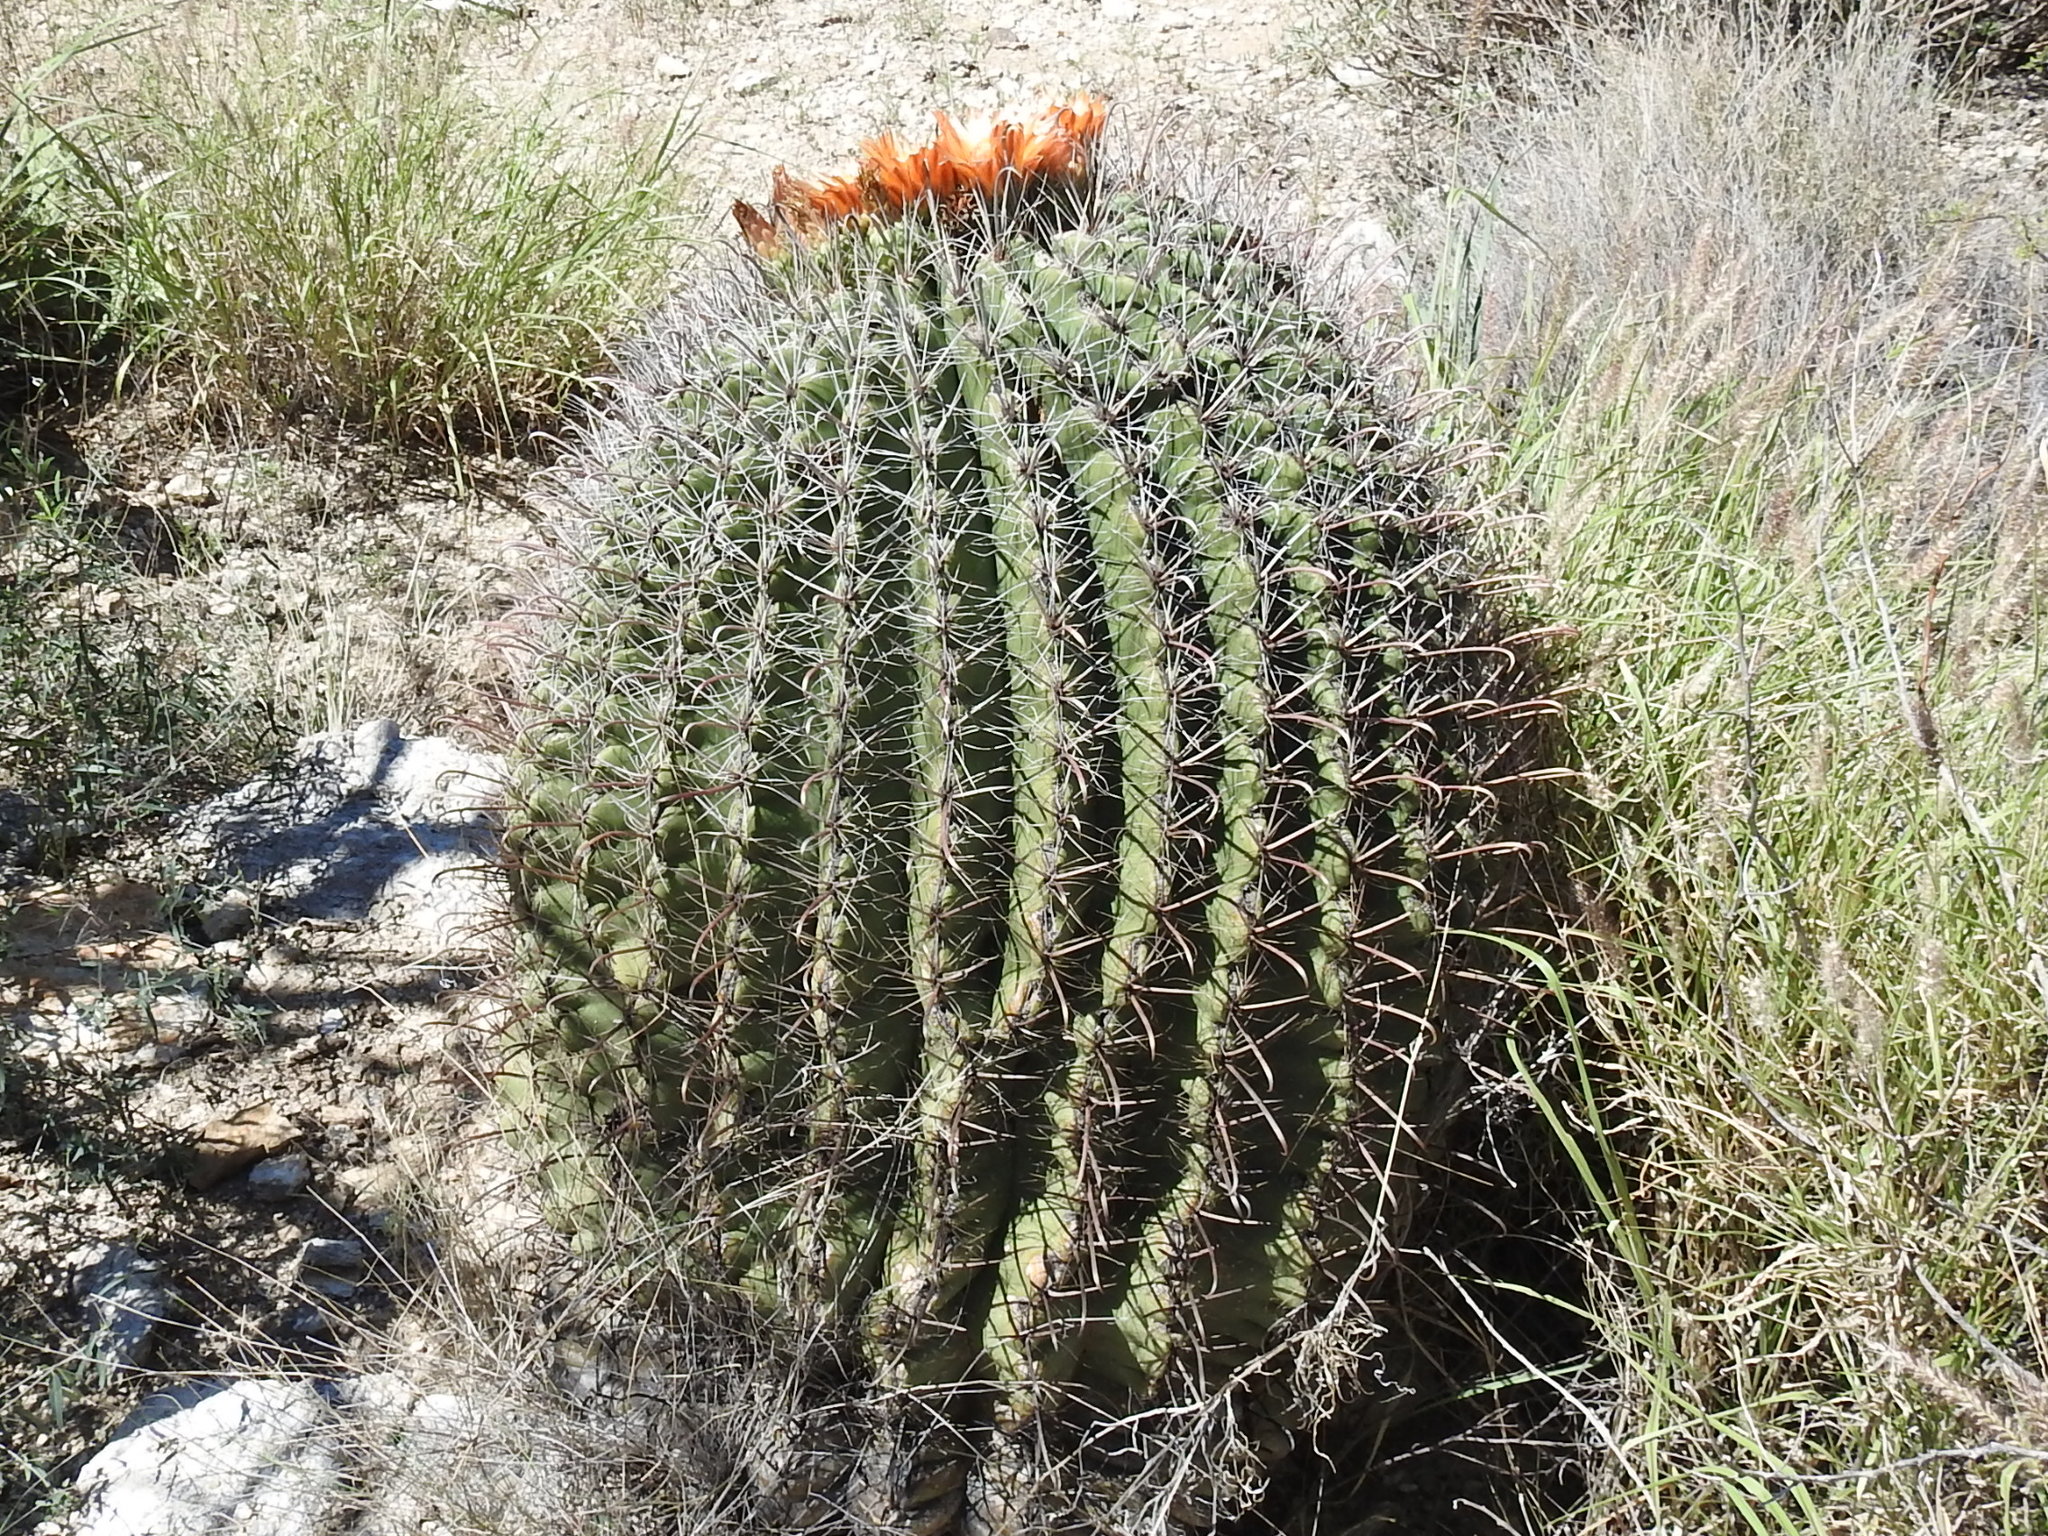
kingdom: Plantae
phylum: Tracheophyta
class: Magnoliopsida
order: Caryophyllales
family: Cactaceae
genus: Ferocactus
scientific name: Ferocactus wislizeni
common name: Candy barrel cactus
